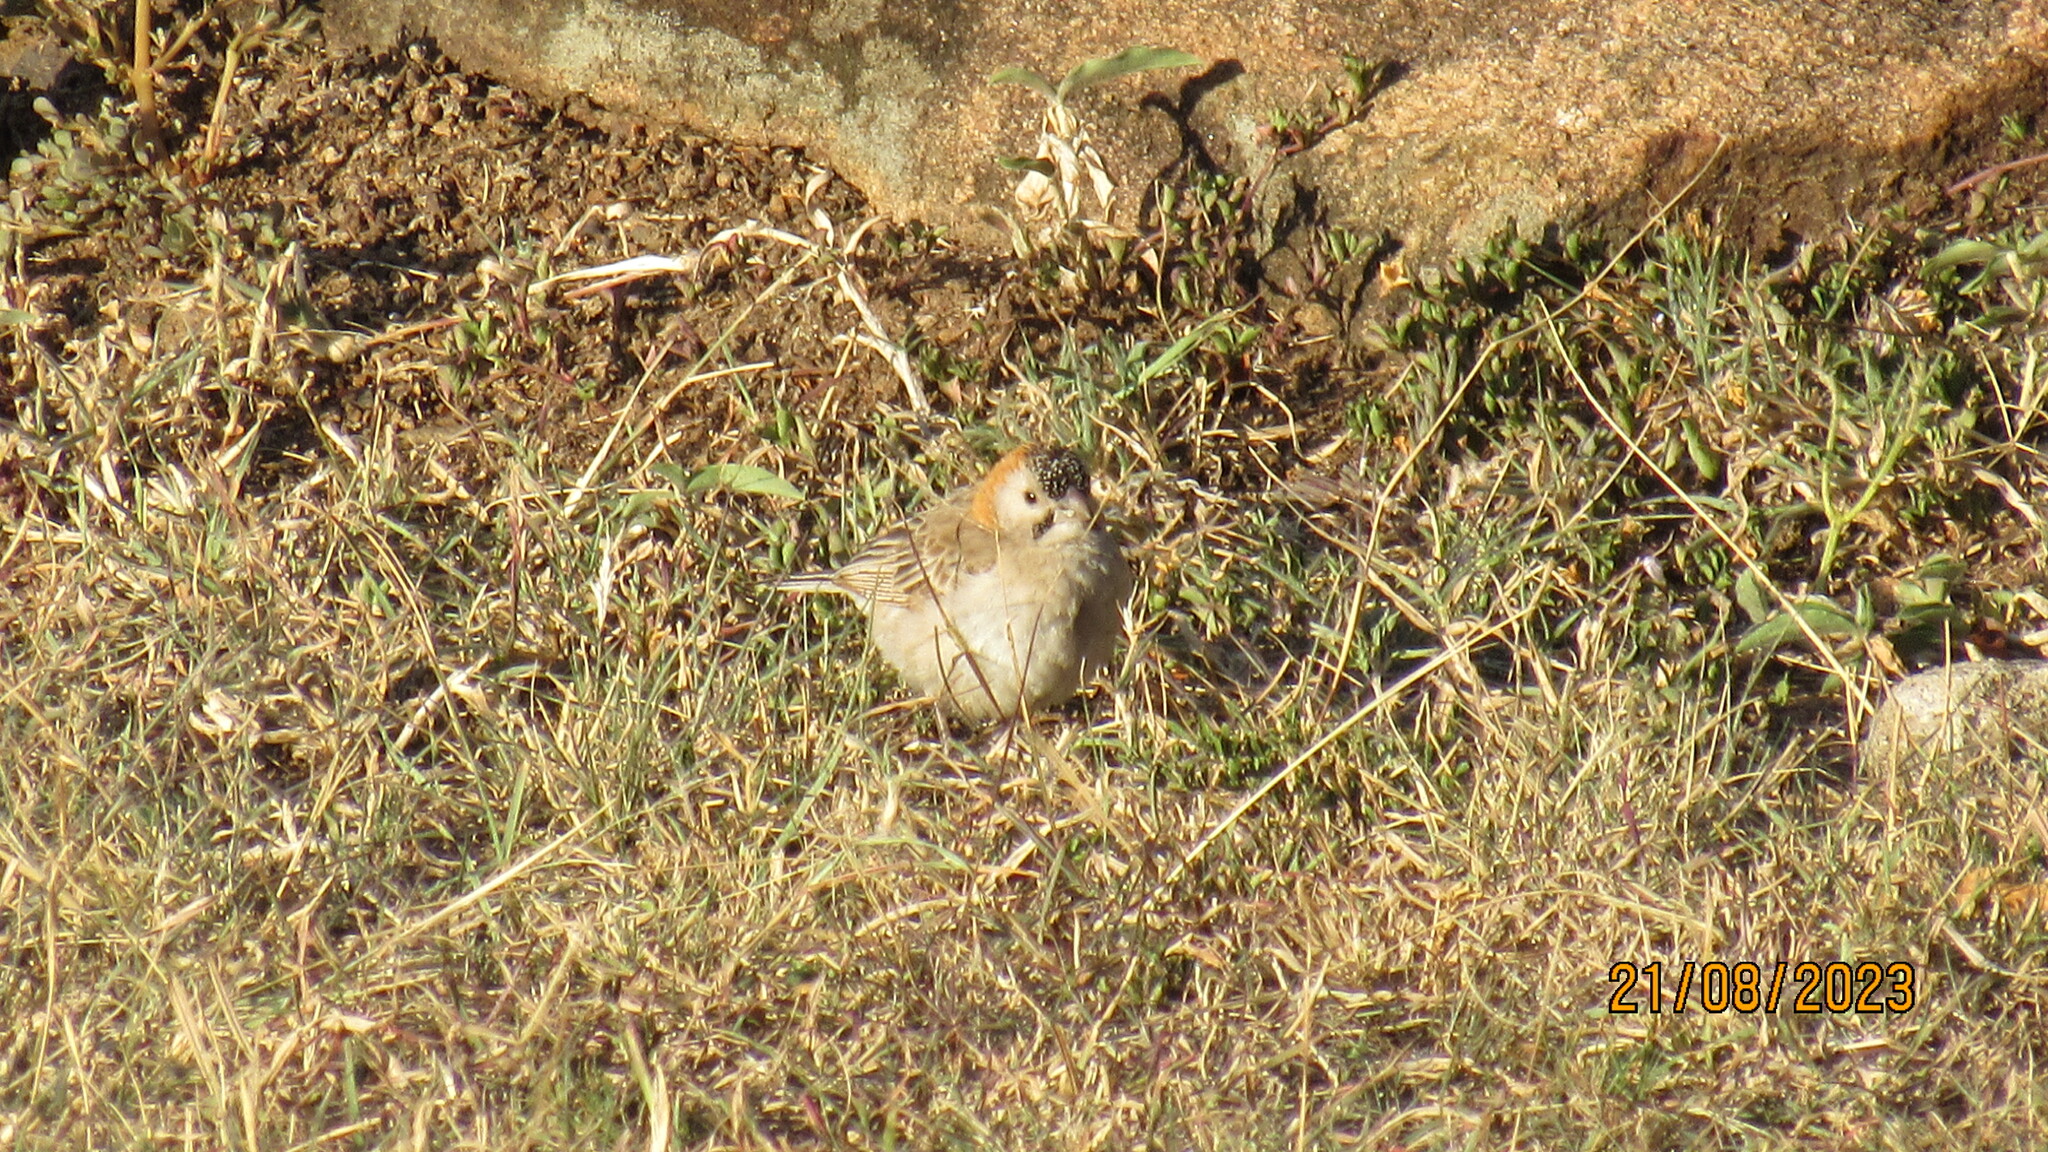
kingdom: Animalia
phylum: Chordata
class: Aves
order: Passeriformes
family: Ploceidae
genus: Sporopipes
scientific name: Sporopipes frontalis
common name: Speckle-fronted weaver
